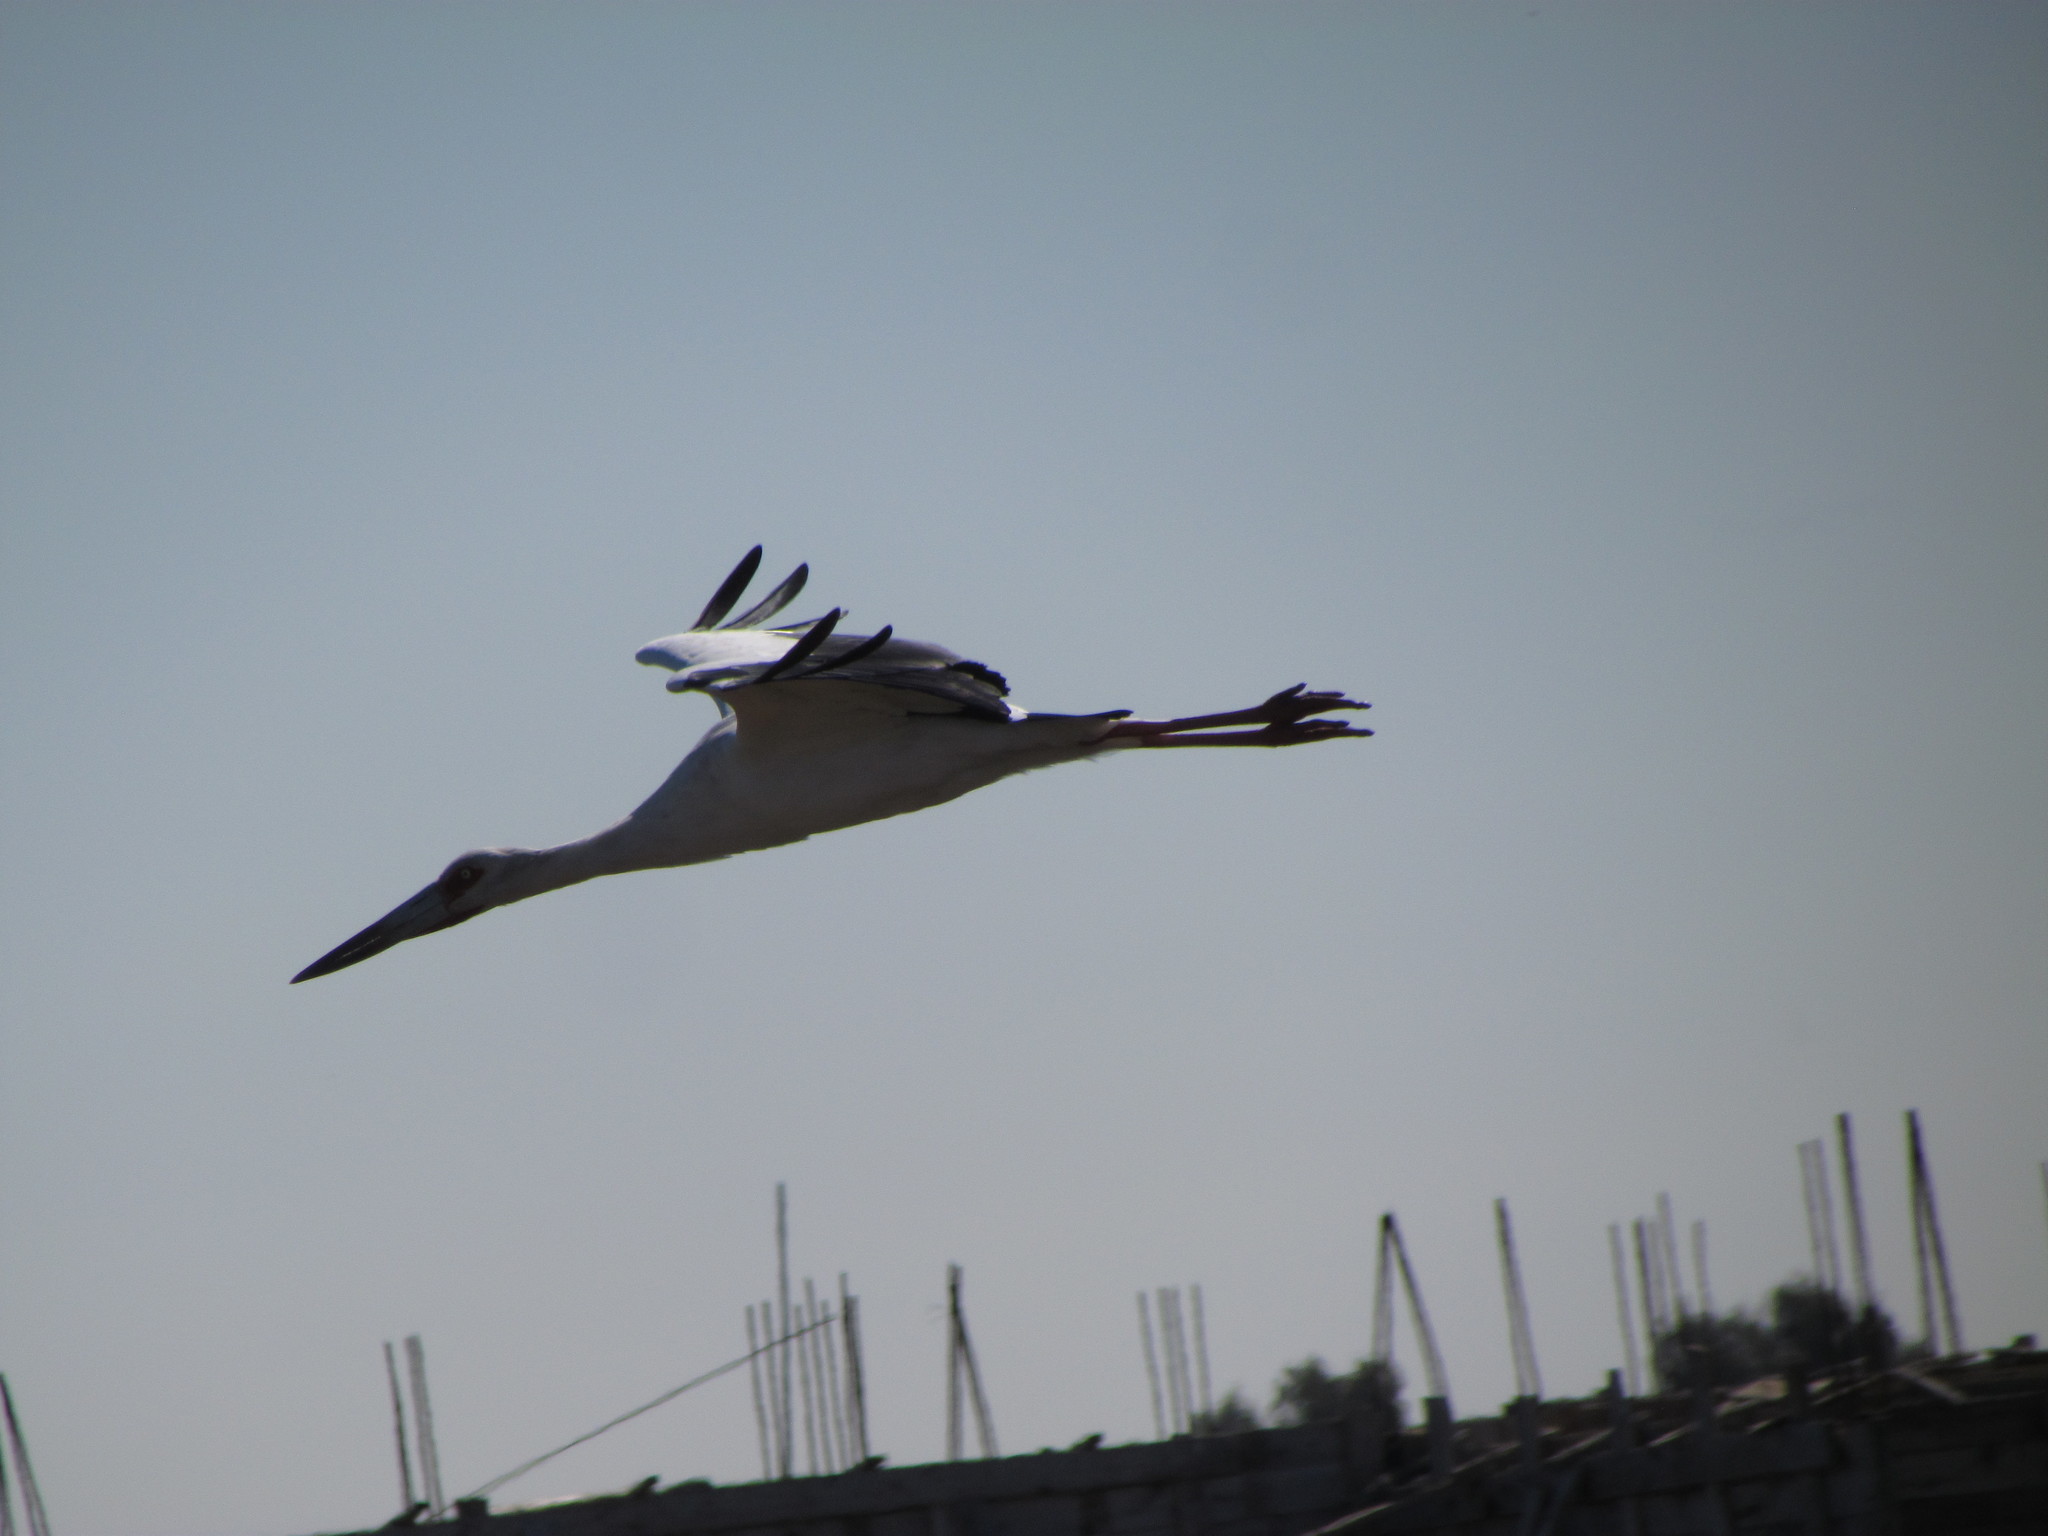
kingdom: Animalia
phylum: Chordata
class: Aves
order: Ciconiiformes
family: Ciconiidae
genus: Ciconia
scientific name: Ciconia maguari
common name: Maguari stork
